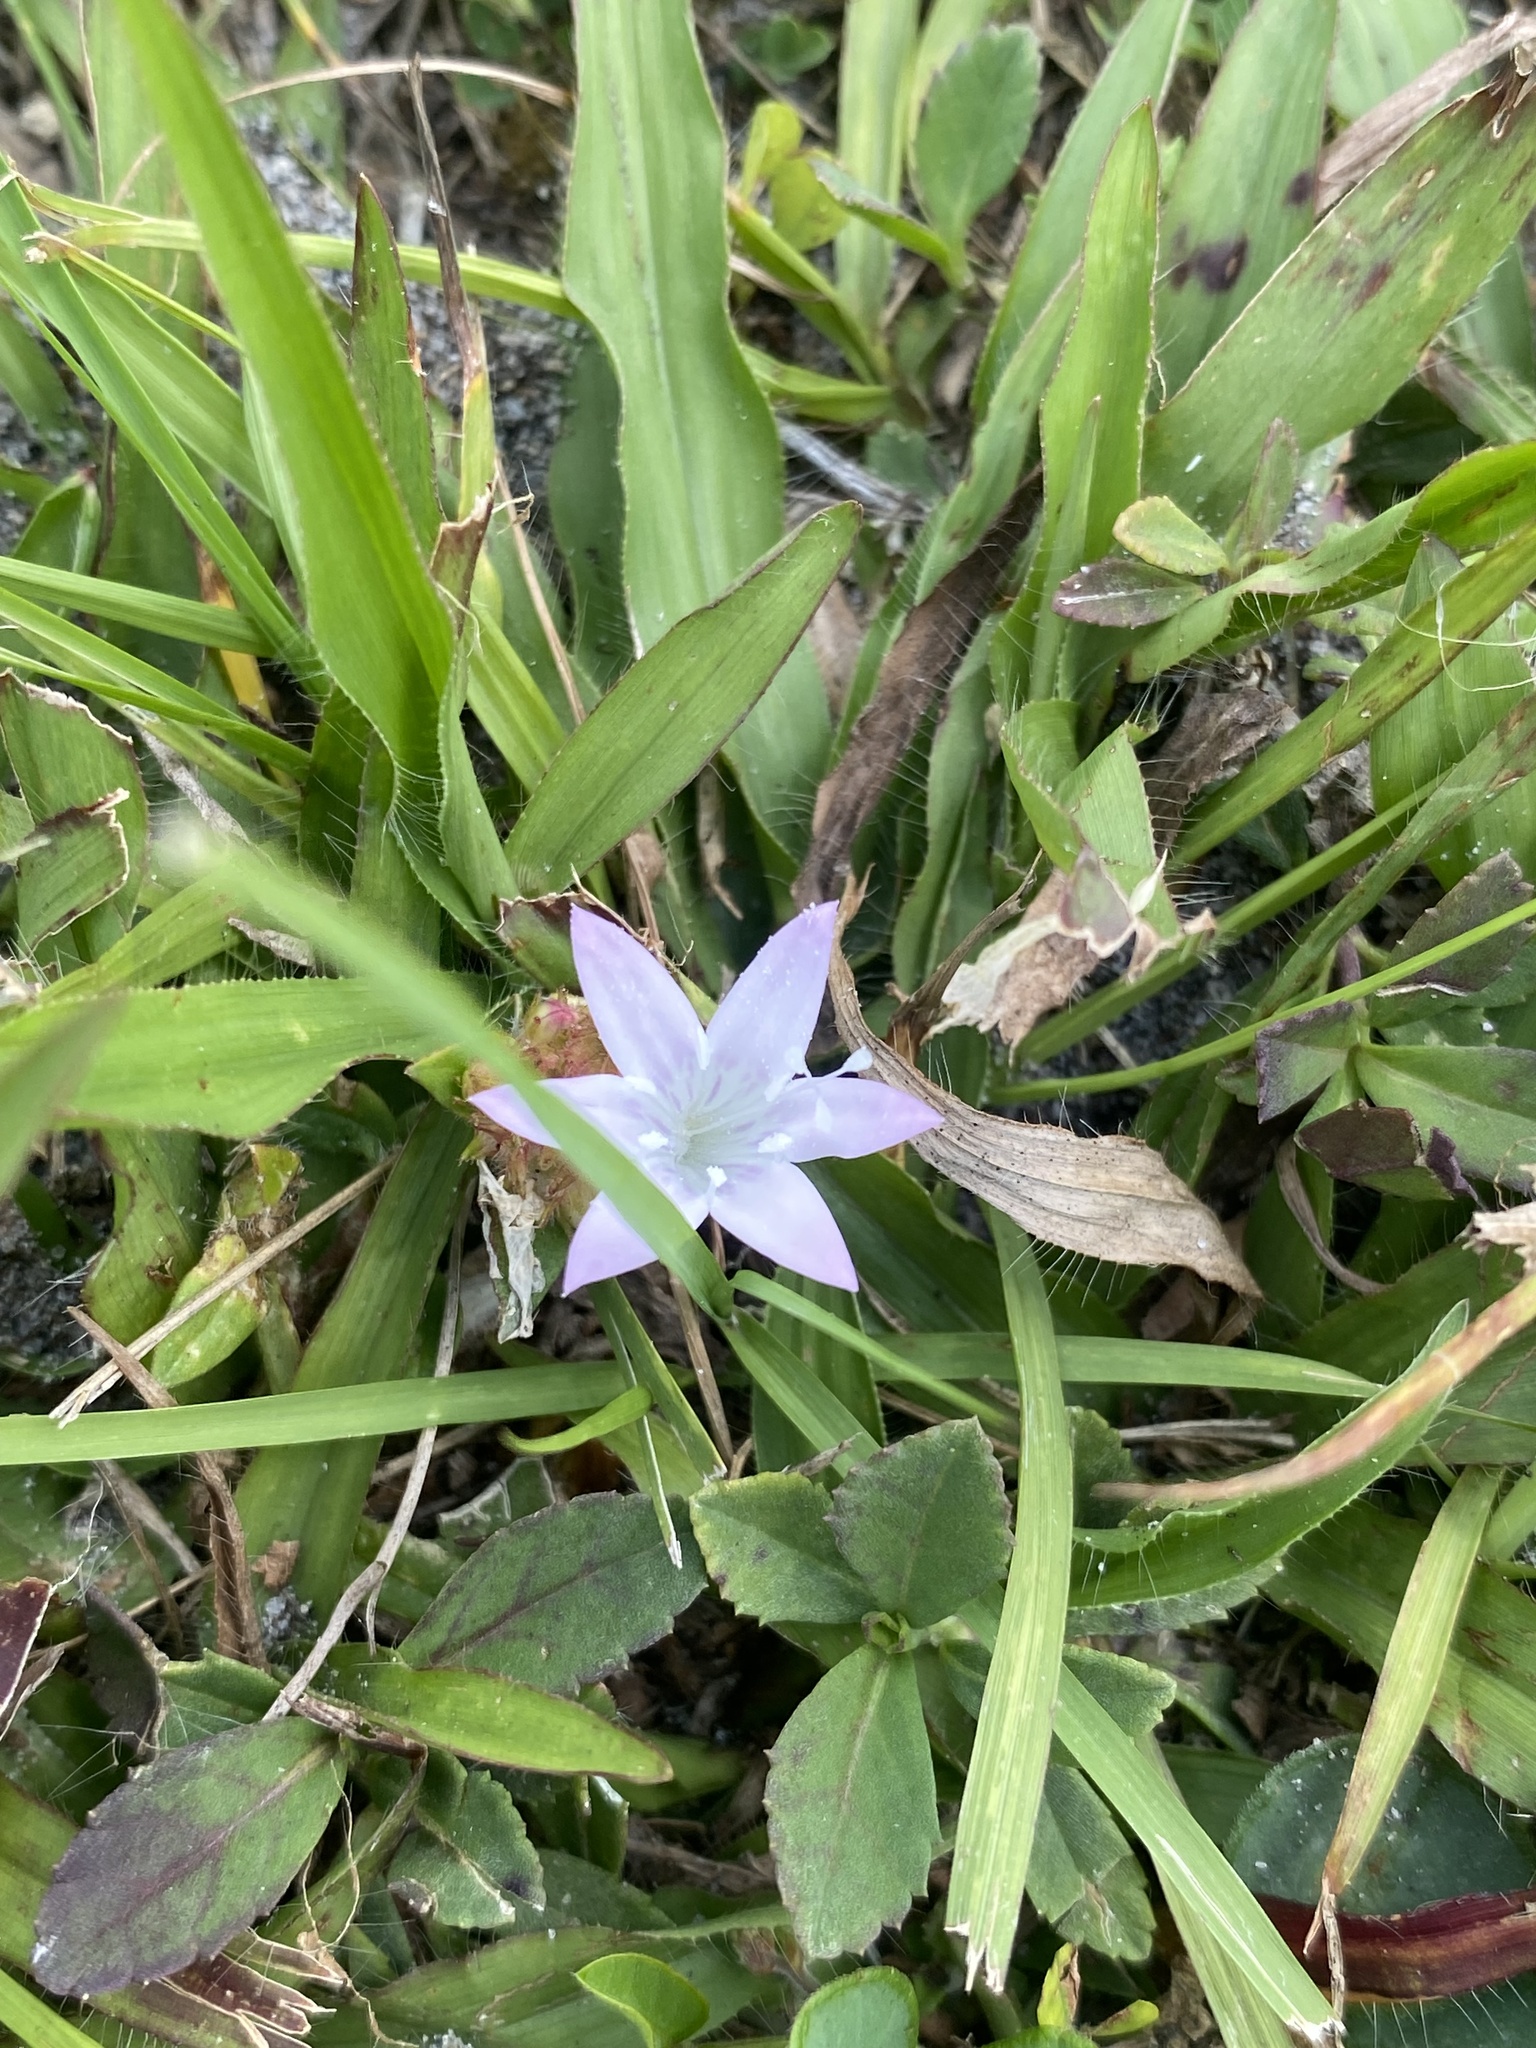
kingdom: Plantae
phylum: Tracheophyta
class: Magnoliopsida
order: Gentianales
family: Rubiaceae
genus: Richardia
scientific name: Richardia grandiflora
